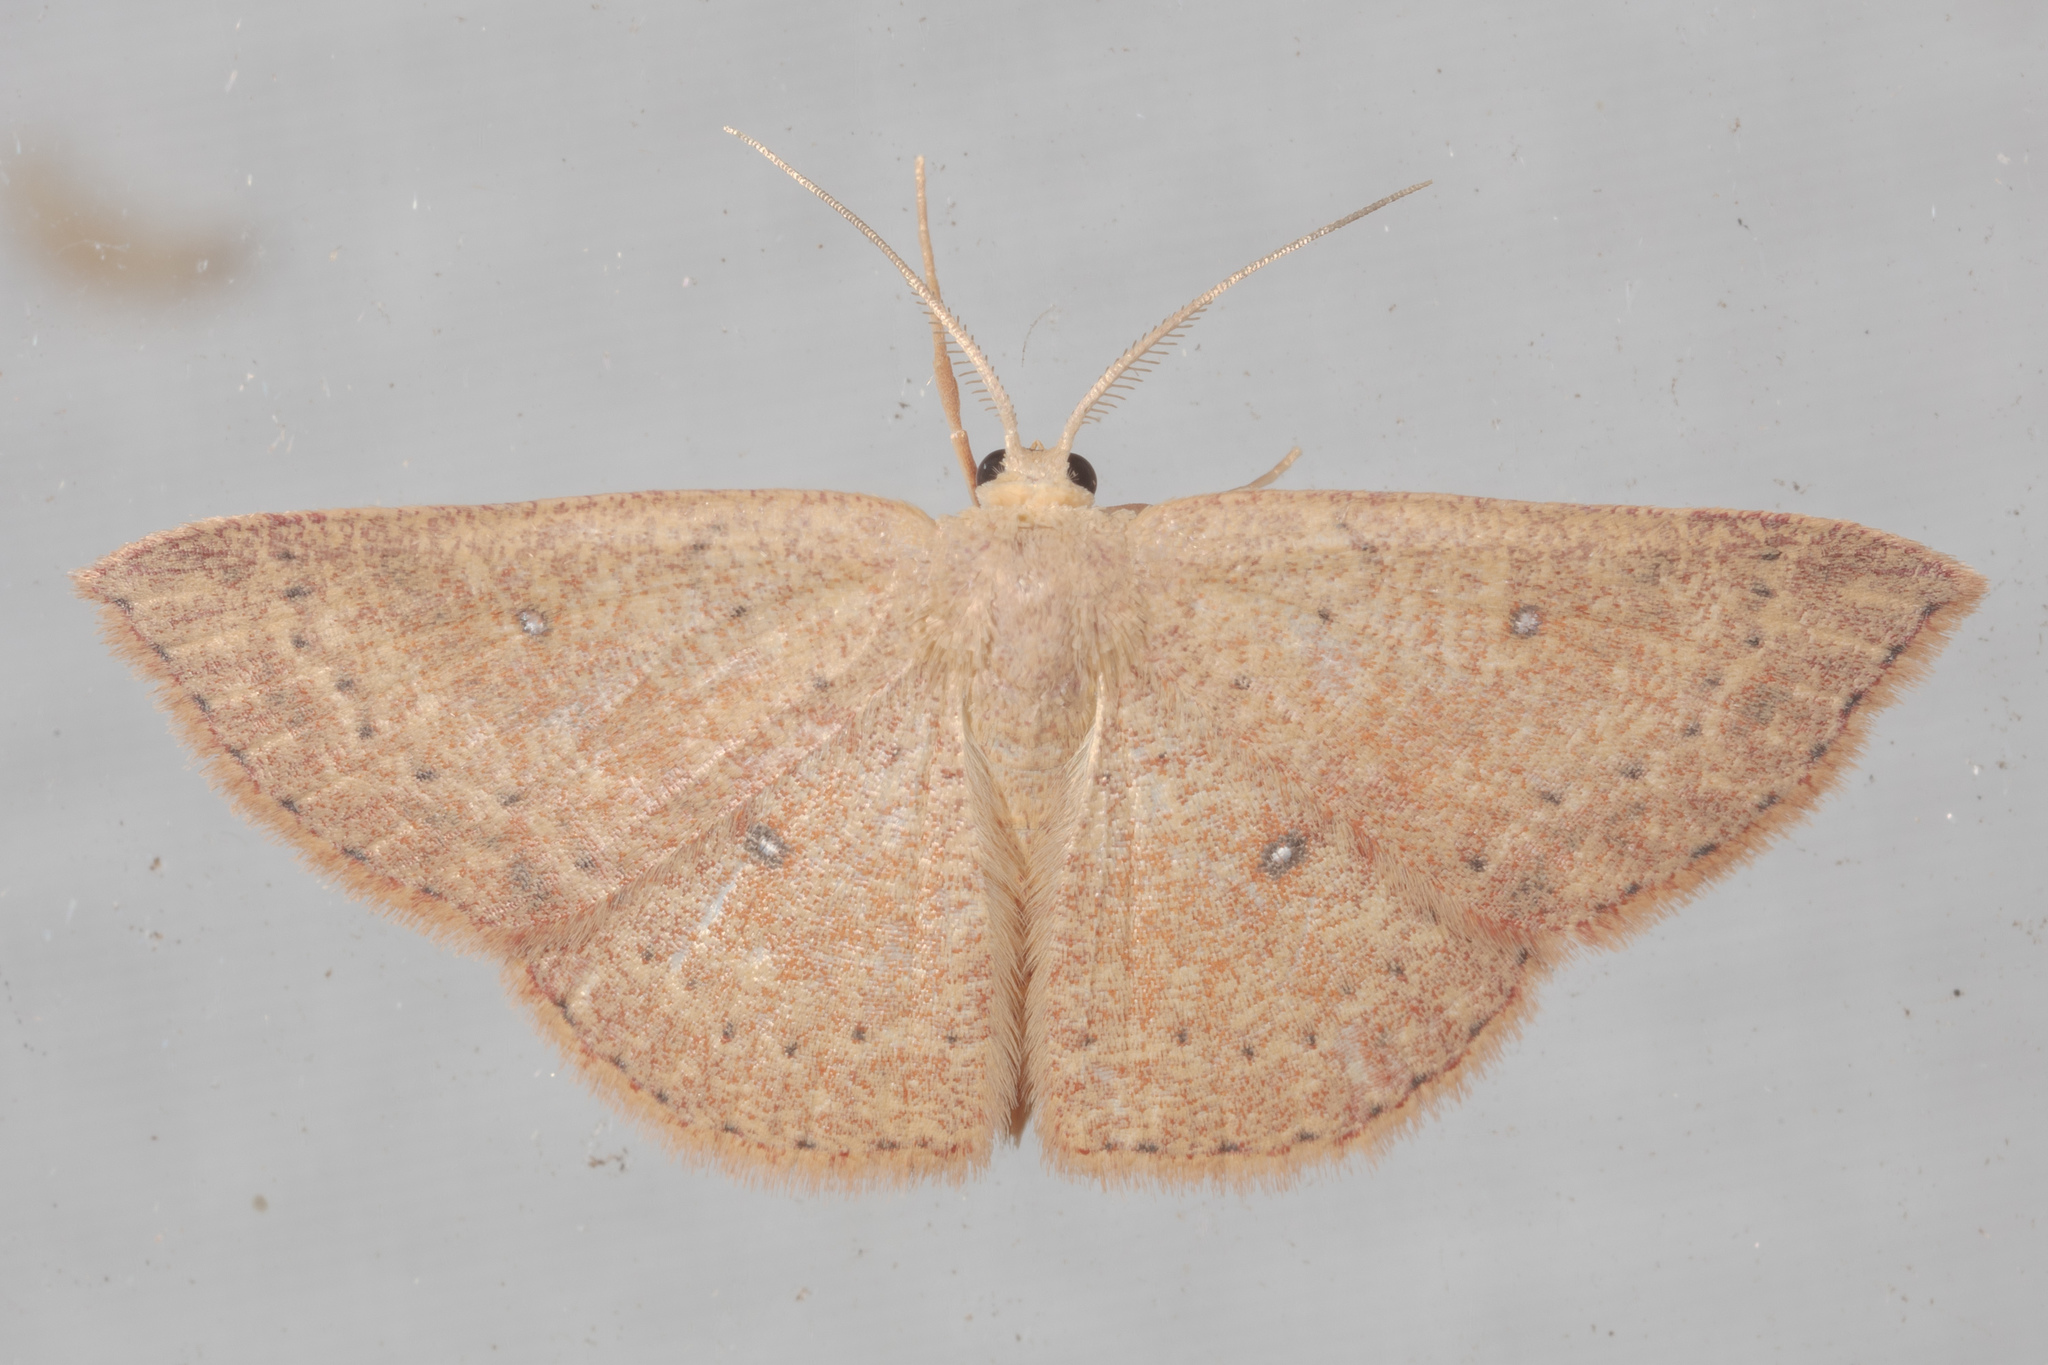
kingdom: Animalia
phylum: Arthropoda
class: Insecta
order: Lepidoptera
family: Geometridae
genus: Cyclophora
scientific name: Cyclophora packardi
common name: Packard's wave
